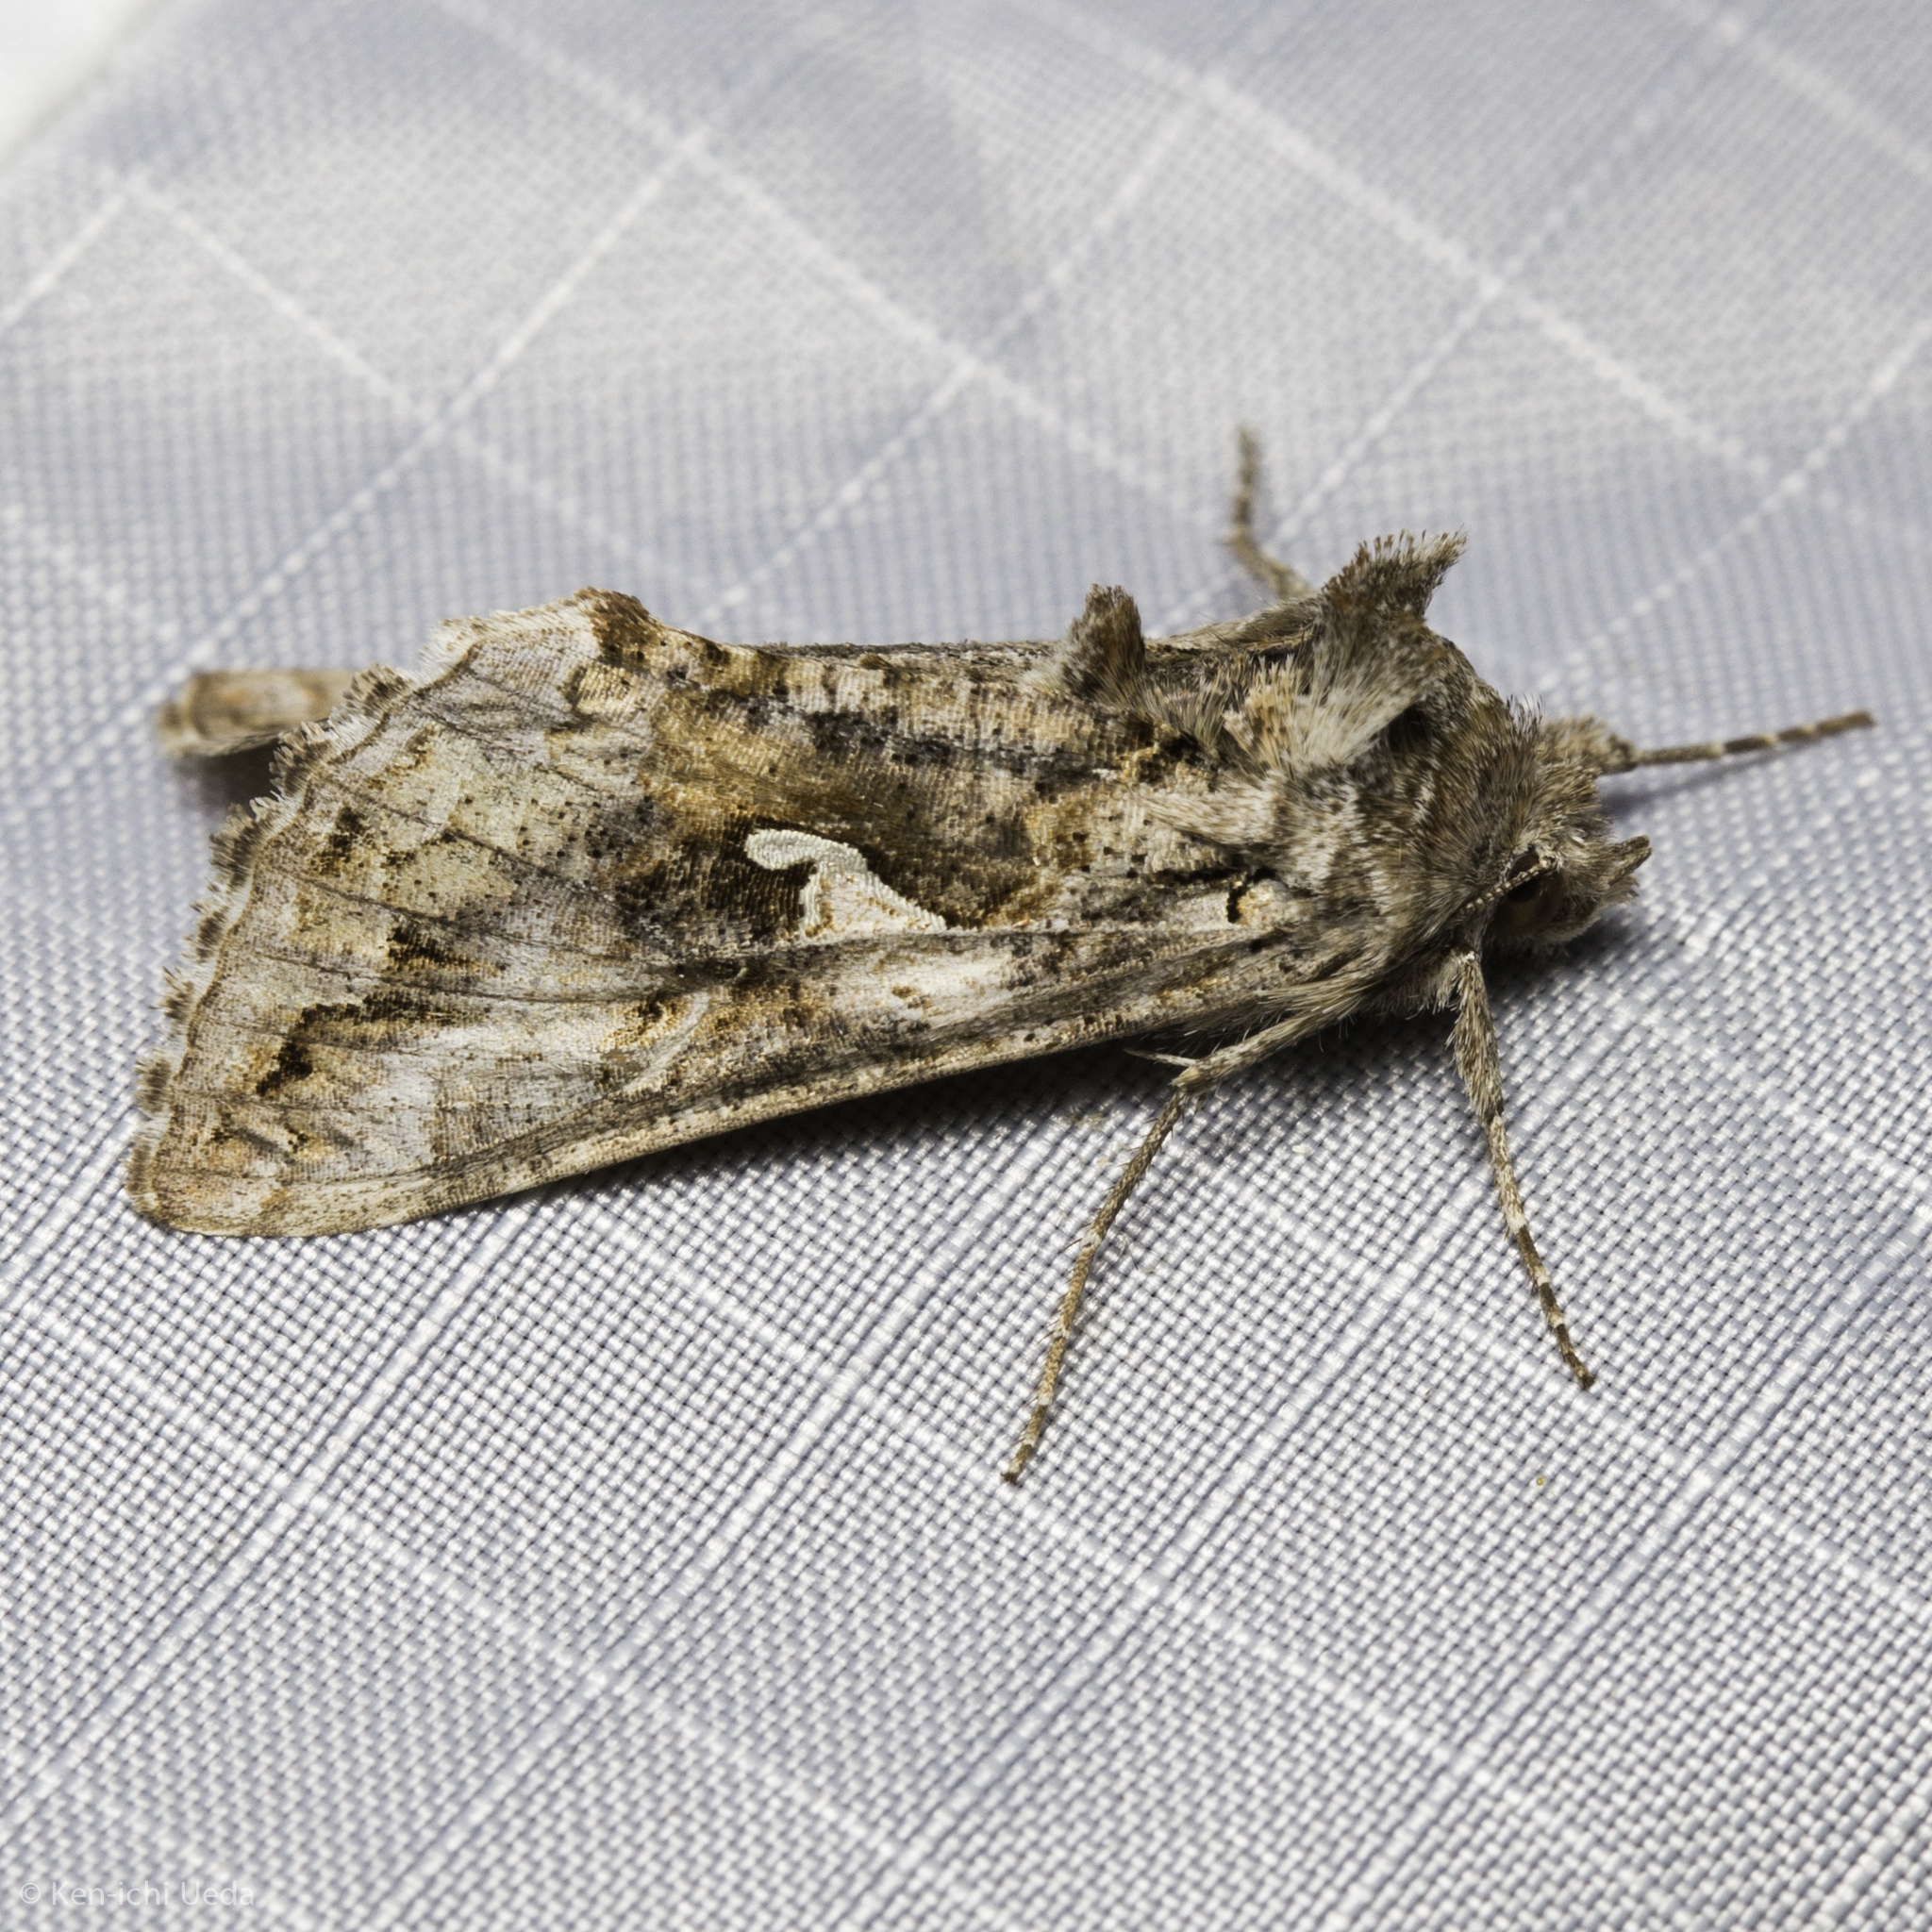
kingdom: Animalia
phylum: Arthropoda
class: Insecta
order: Lepidoptera
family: Noctuidae
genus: Autographa
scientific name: Autographa californica
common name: Alfalfa looper
